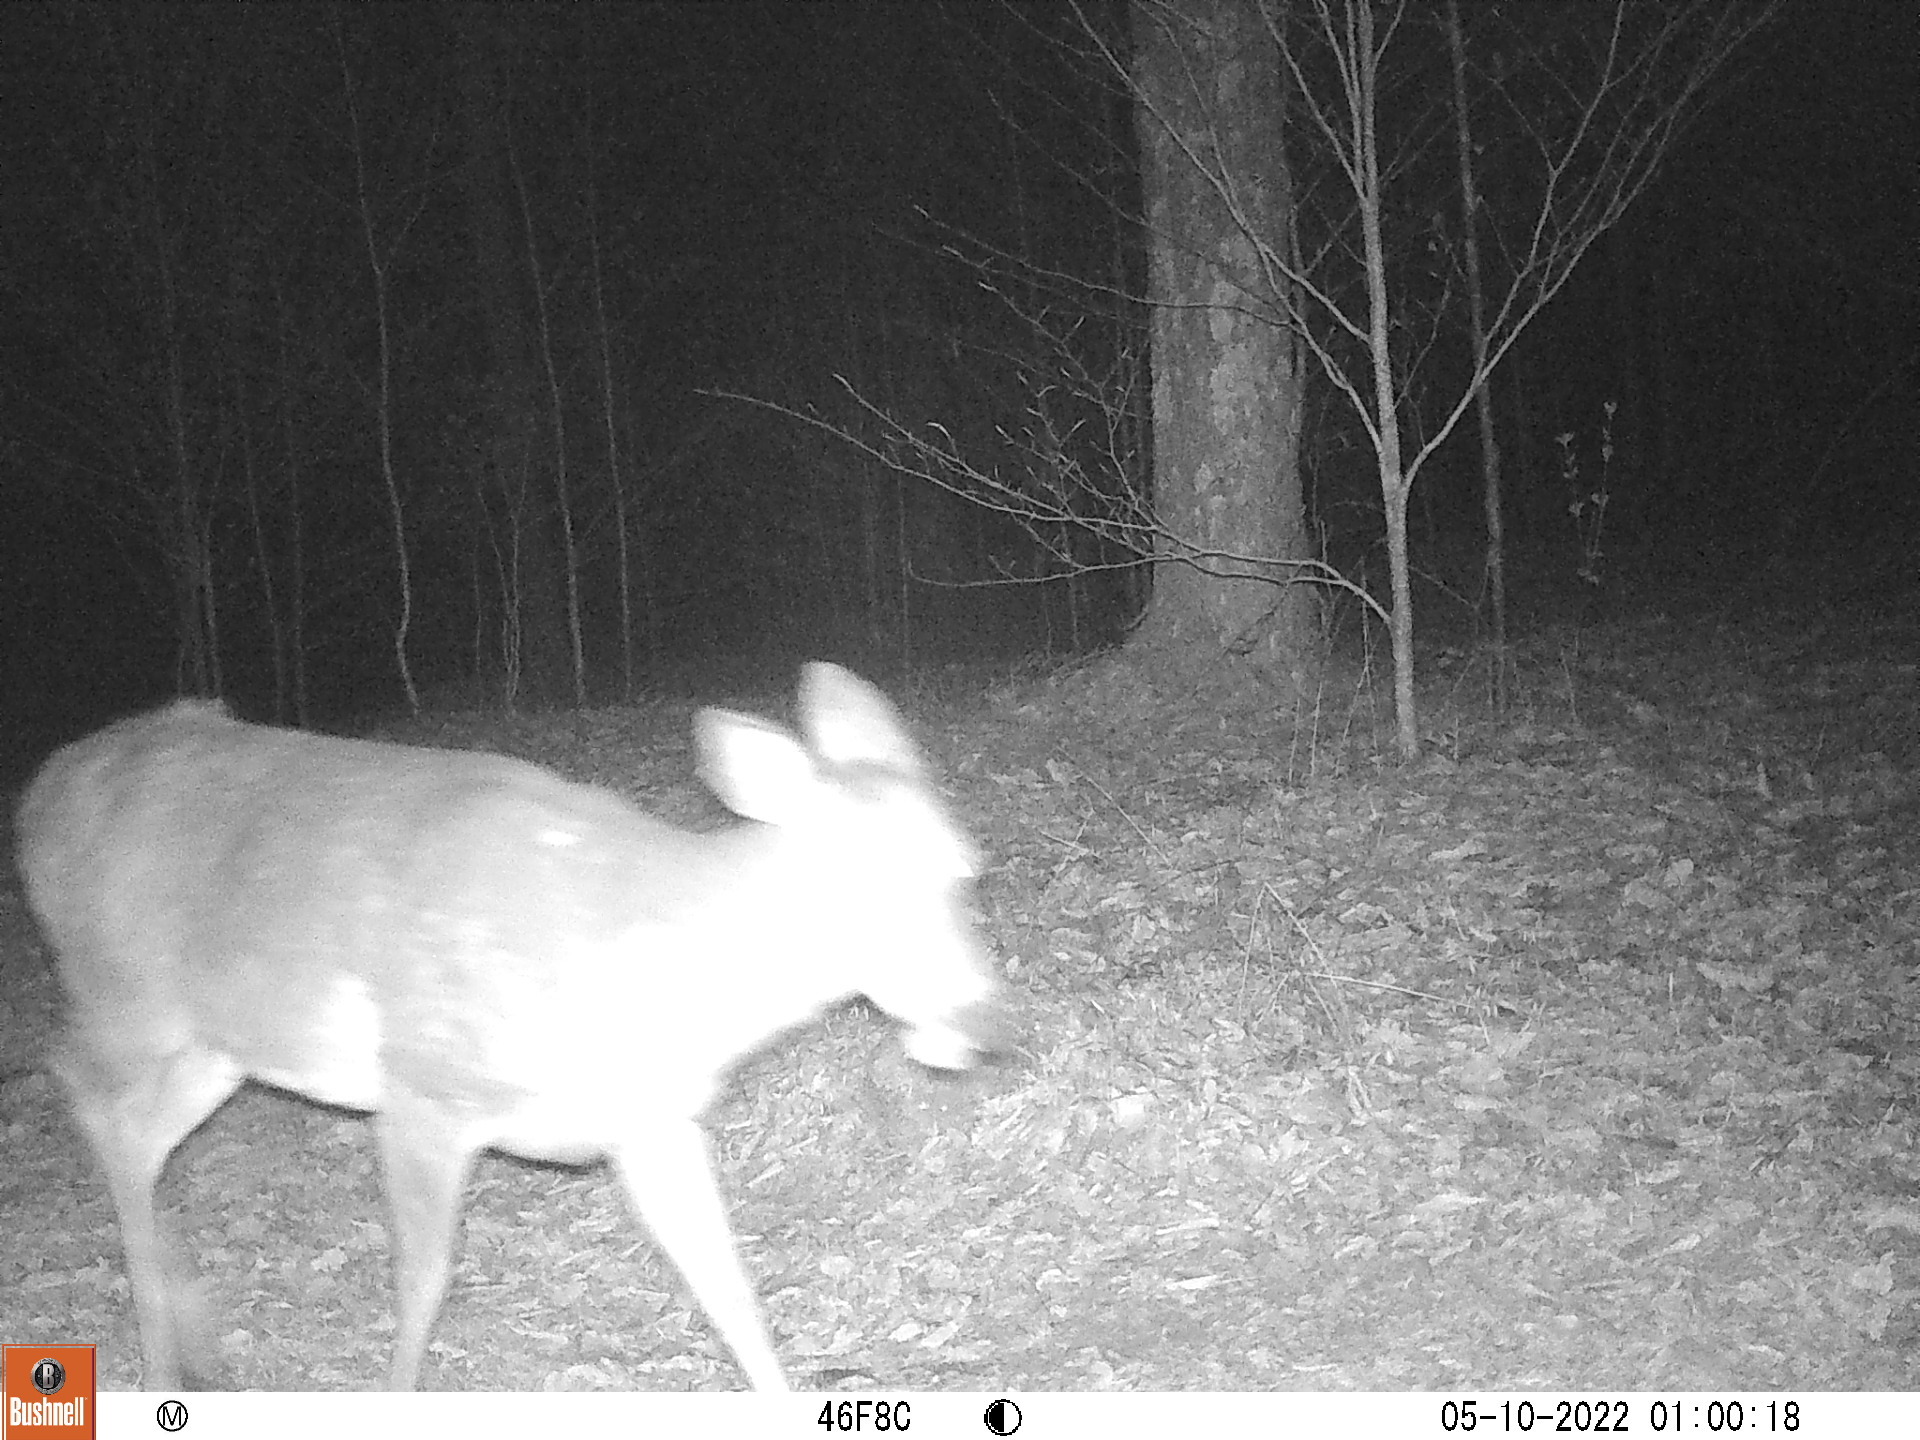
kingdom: Animalia
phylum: Chordata
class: Mammalia
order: Artiodactyla
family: Cervidae
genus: Odocoileus
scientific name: Odocoileus virginianus
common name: White-tailed deer
